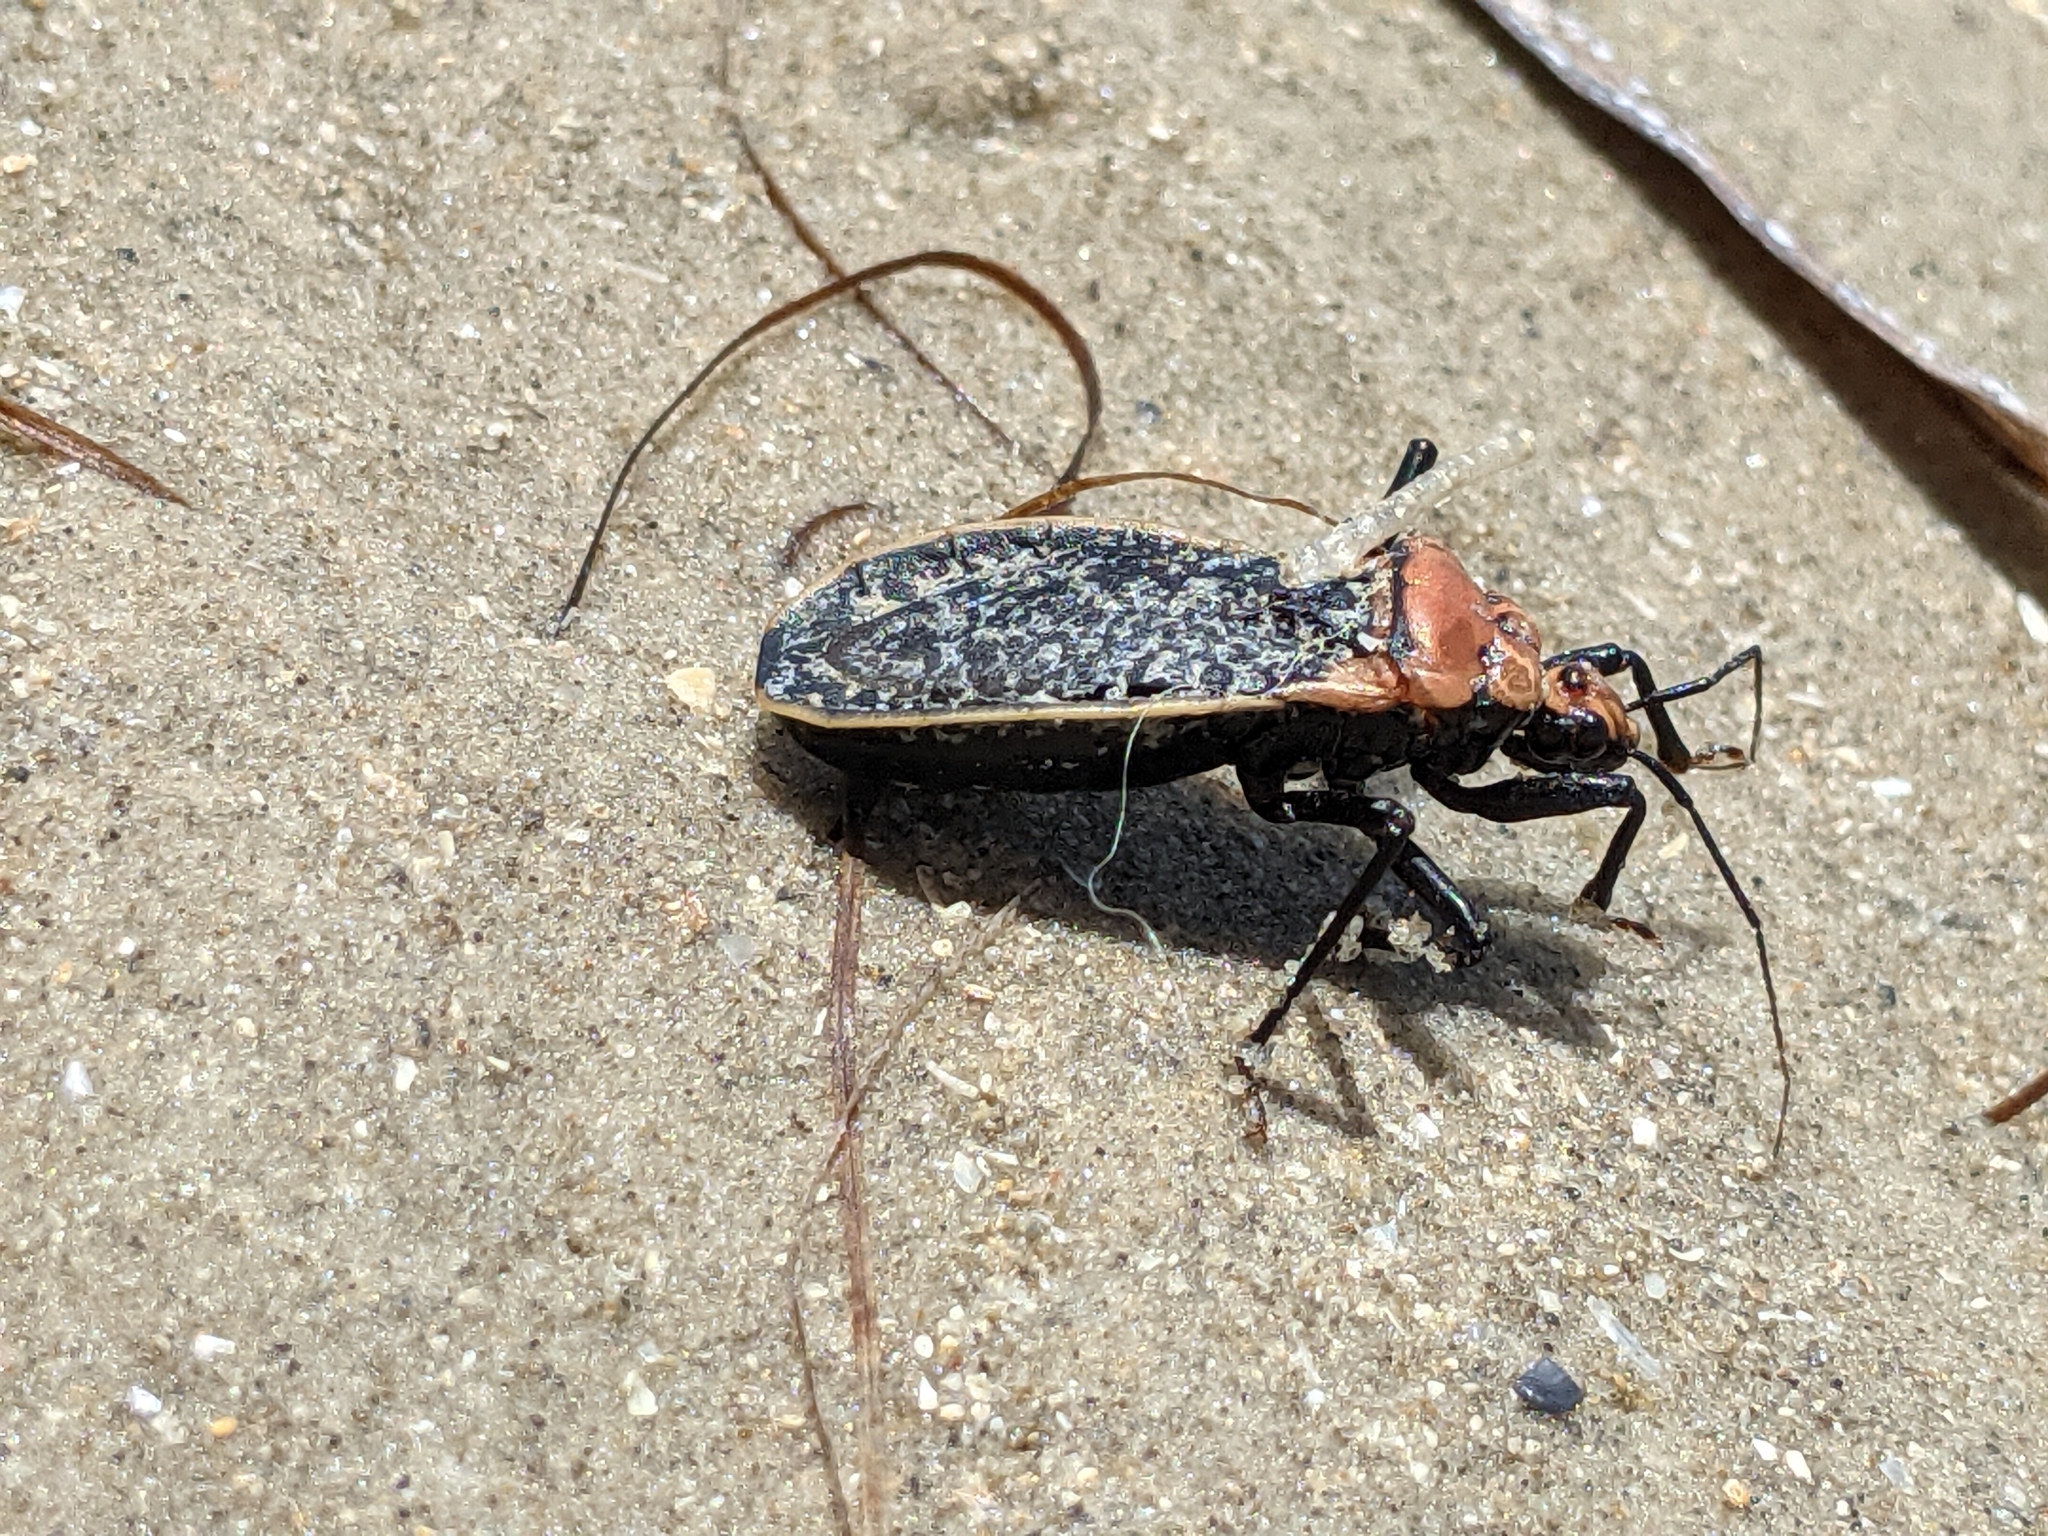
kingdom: Animalia
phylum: Arthropoda
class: Insecta
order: Hemiptera
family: Reduviidae
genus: Rhiginia
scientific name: Rhiginia cinctiventris
